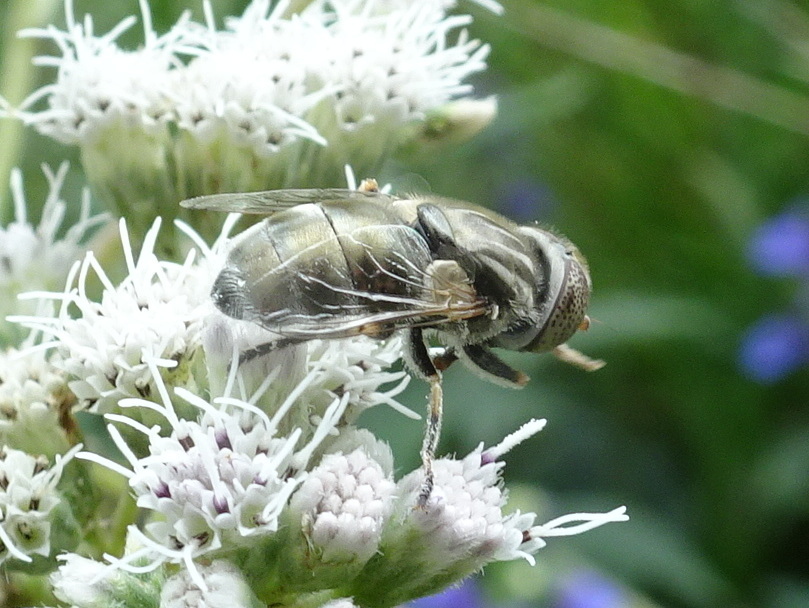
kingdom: Animalia
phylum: Arthropoda
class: Insecta
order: Diptera
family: Syrphidae
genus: Eristalinus
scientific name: Eristalinus aeneus
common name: Syrphid fly
